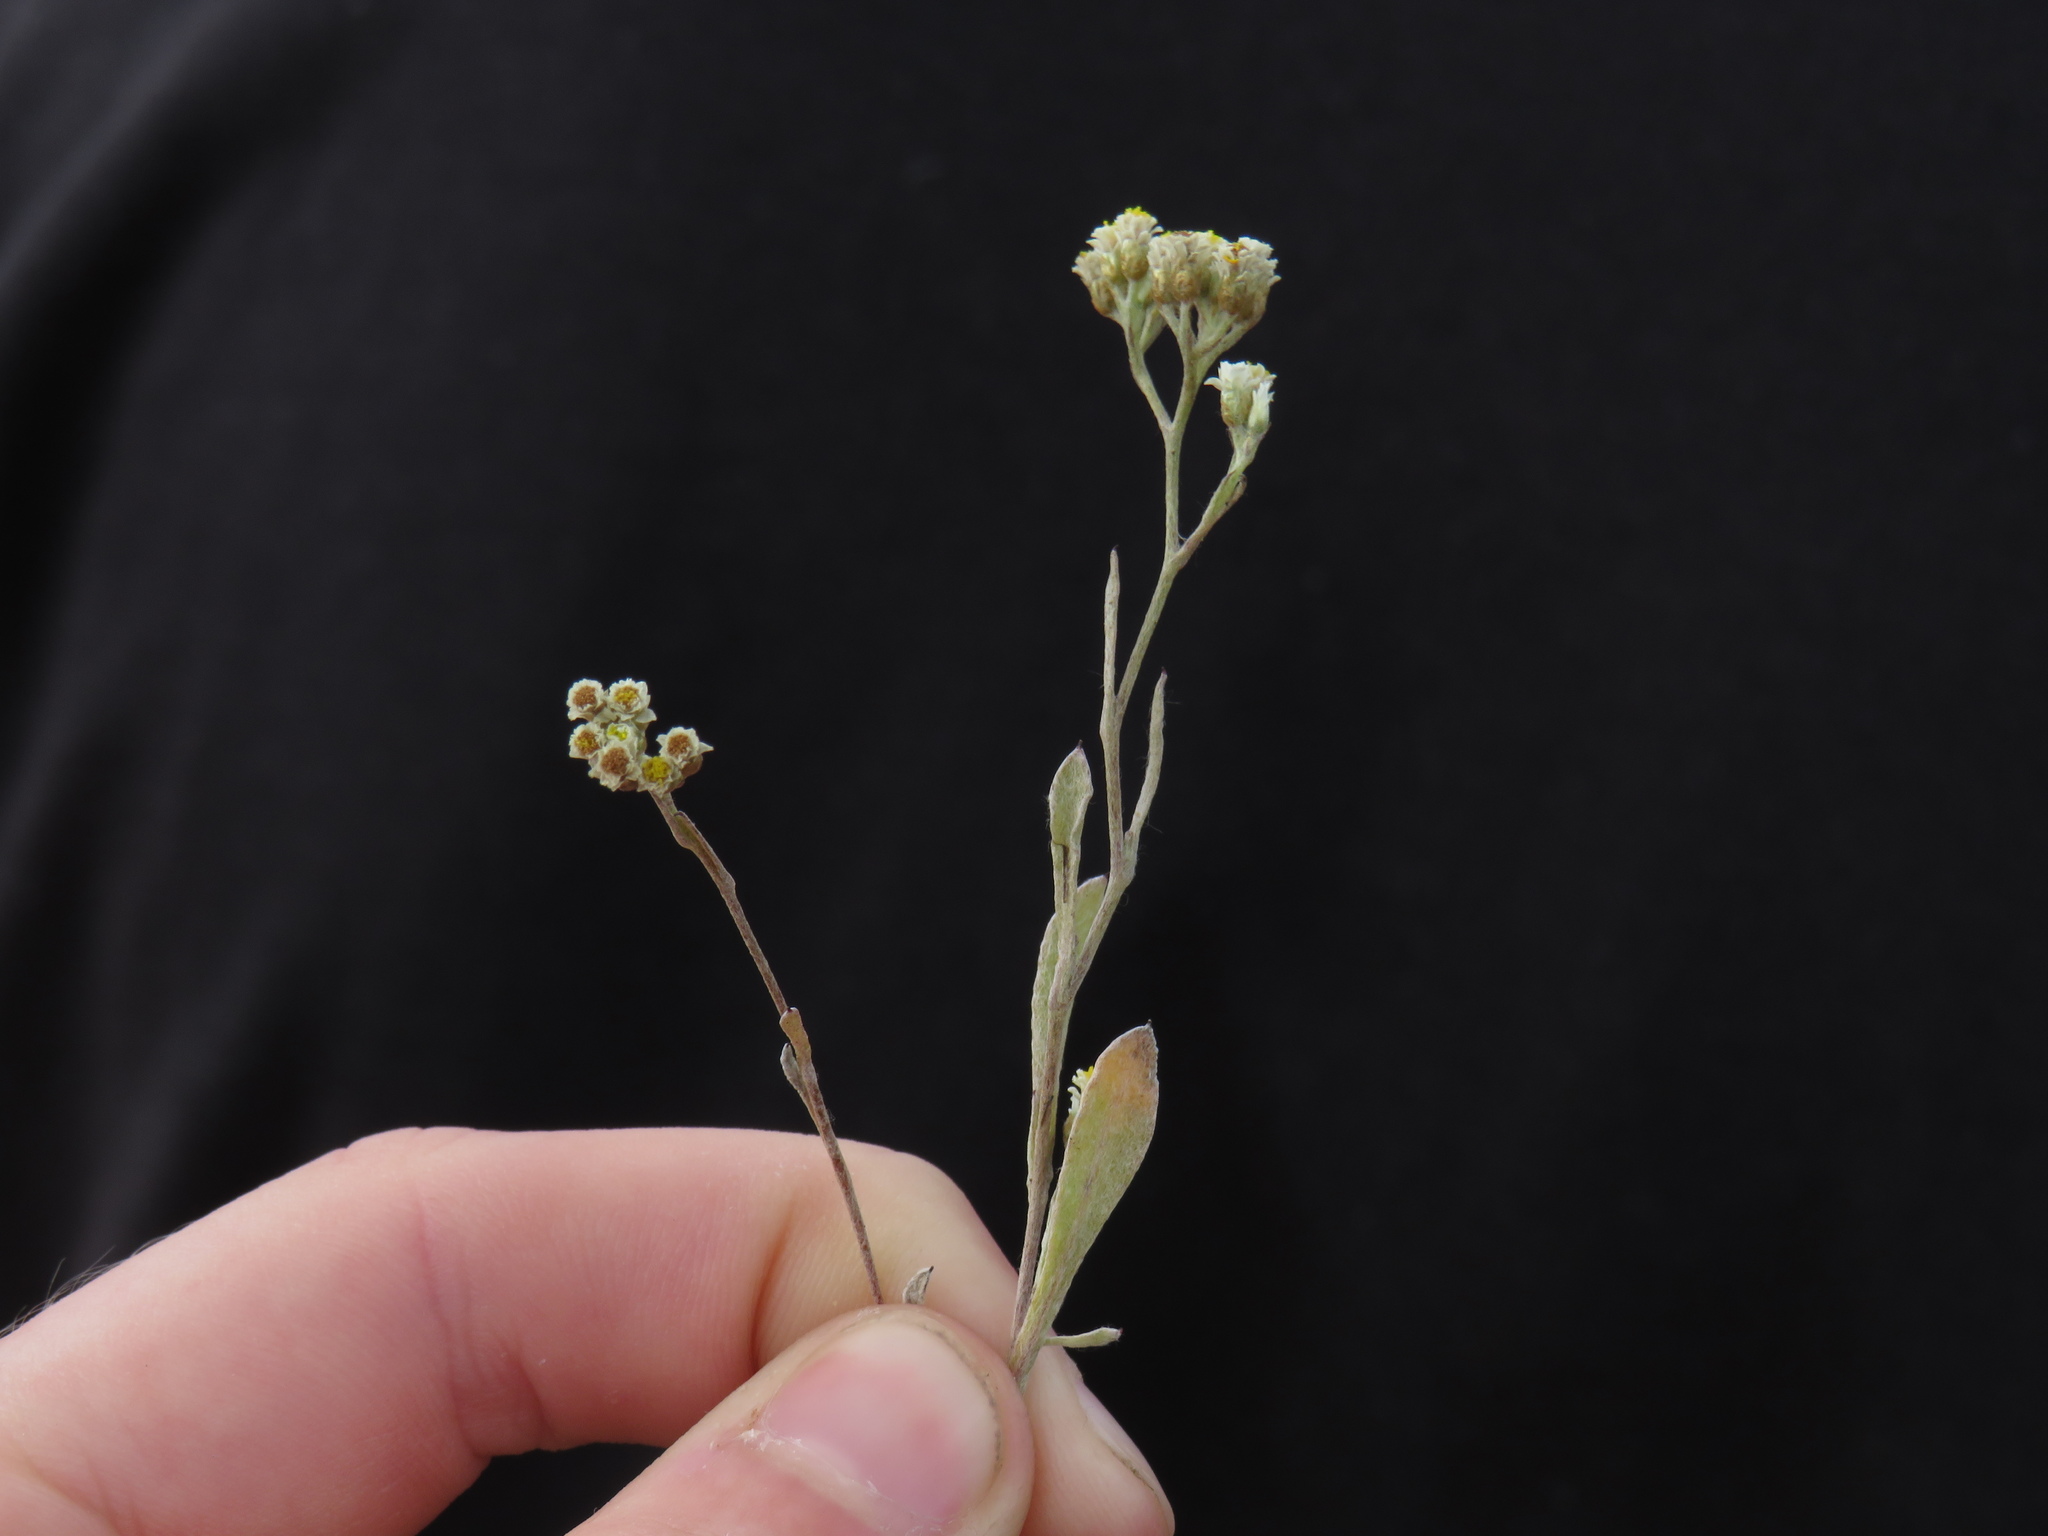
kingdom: Plantae
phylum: Tracheophyta
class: Magnoliopsida
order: Asterales
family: Asteraceae
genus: Helichrysum
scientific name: Helichrysum indicum
